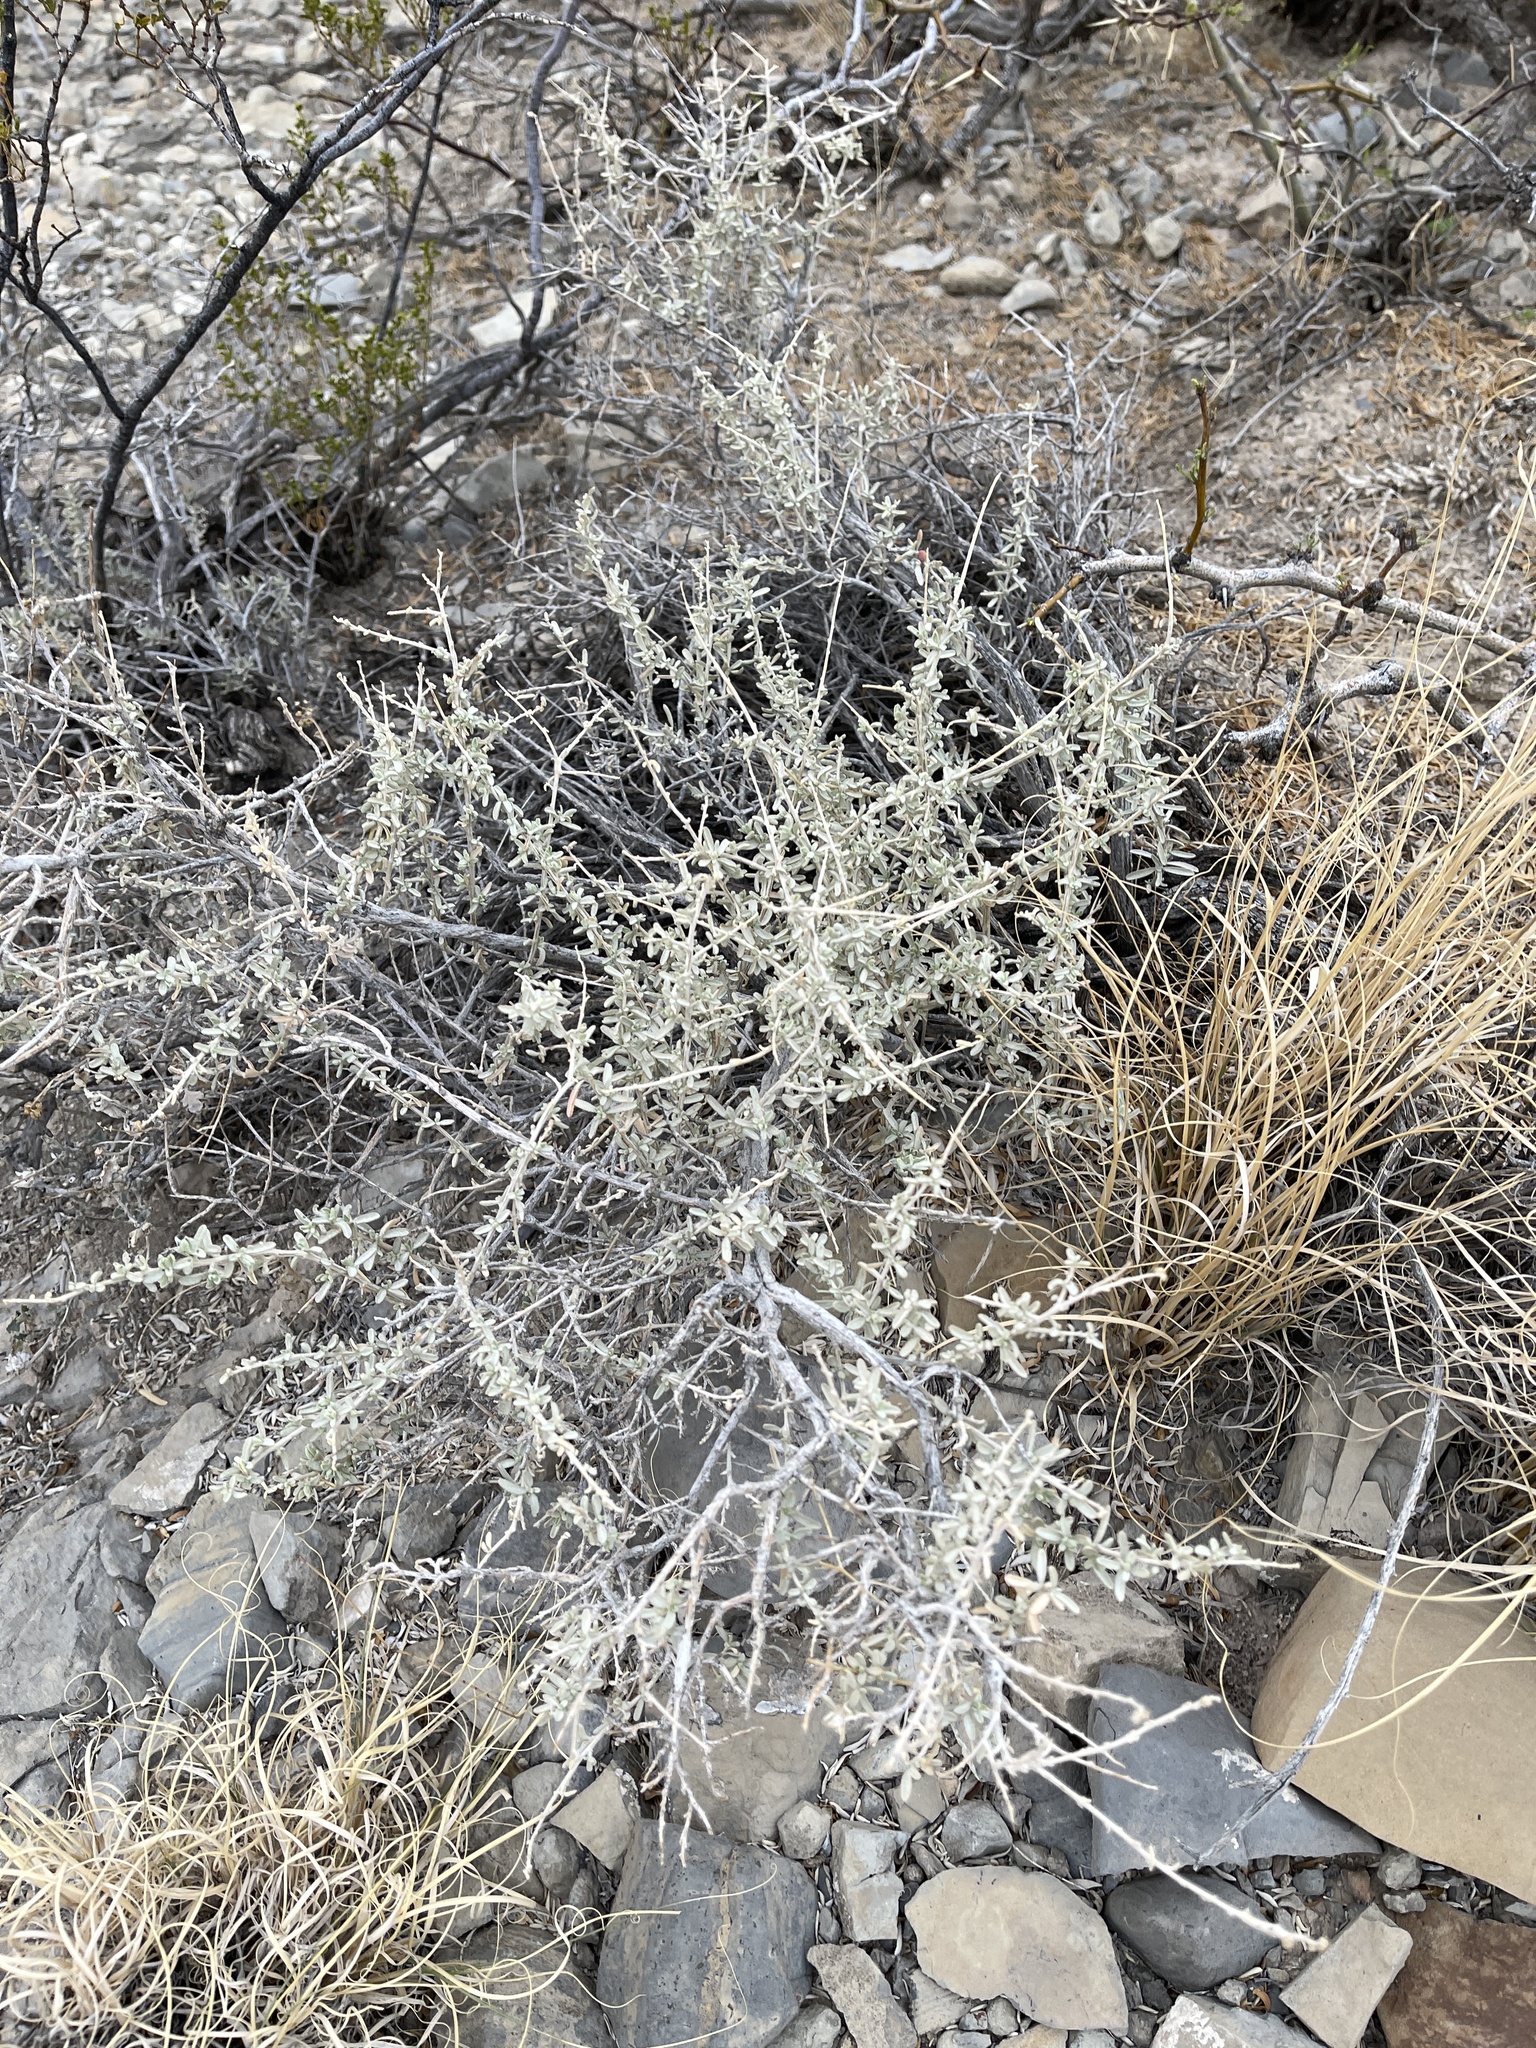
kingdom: Plantae
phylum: Tracheophyta
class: Magnoliopsida
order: Caryophyllales
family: Amaranthaceae
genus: Atriplex
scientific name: Atriplex canescens
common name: Four-wing saltbush
